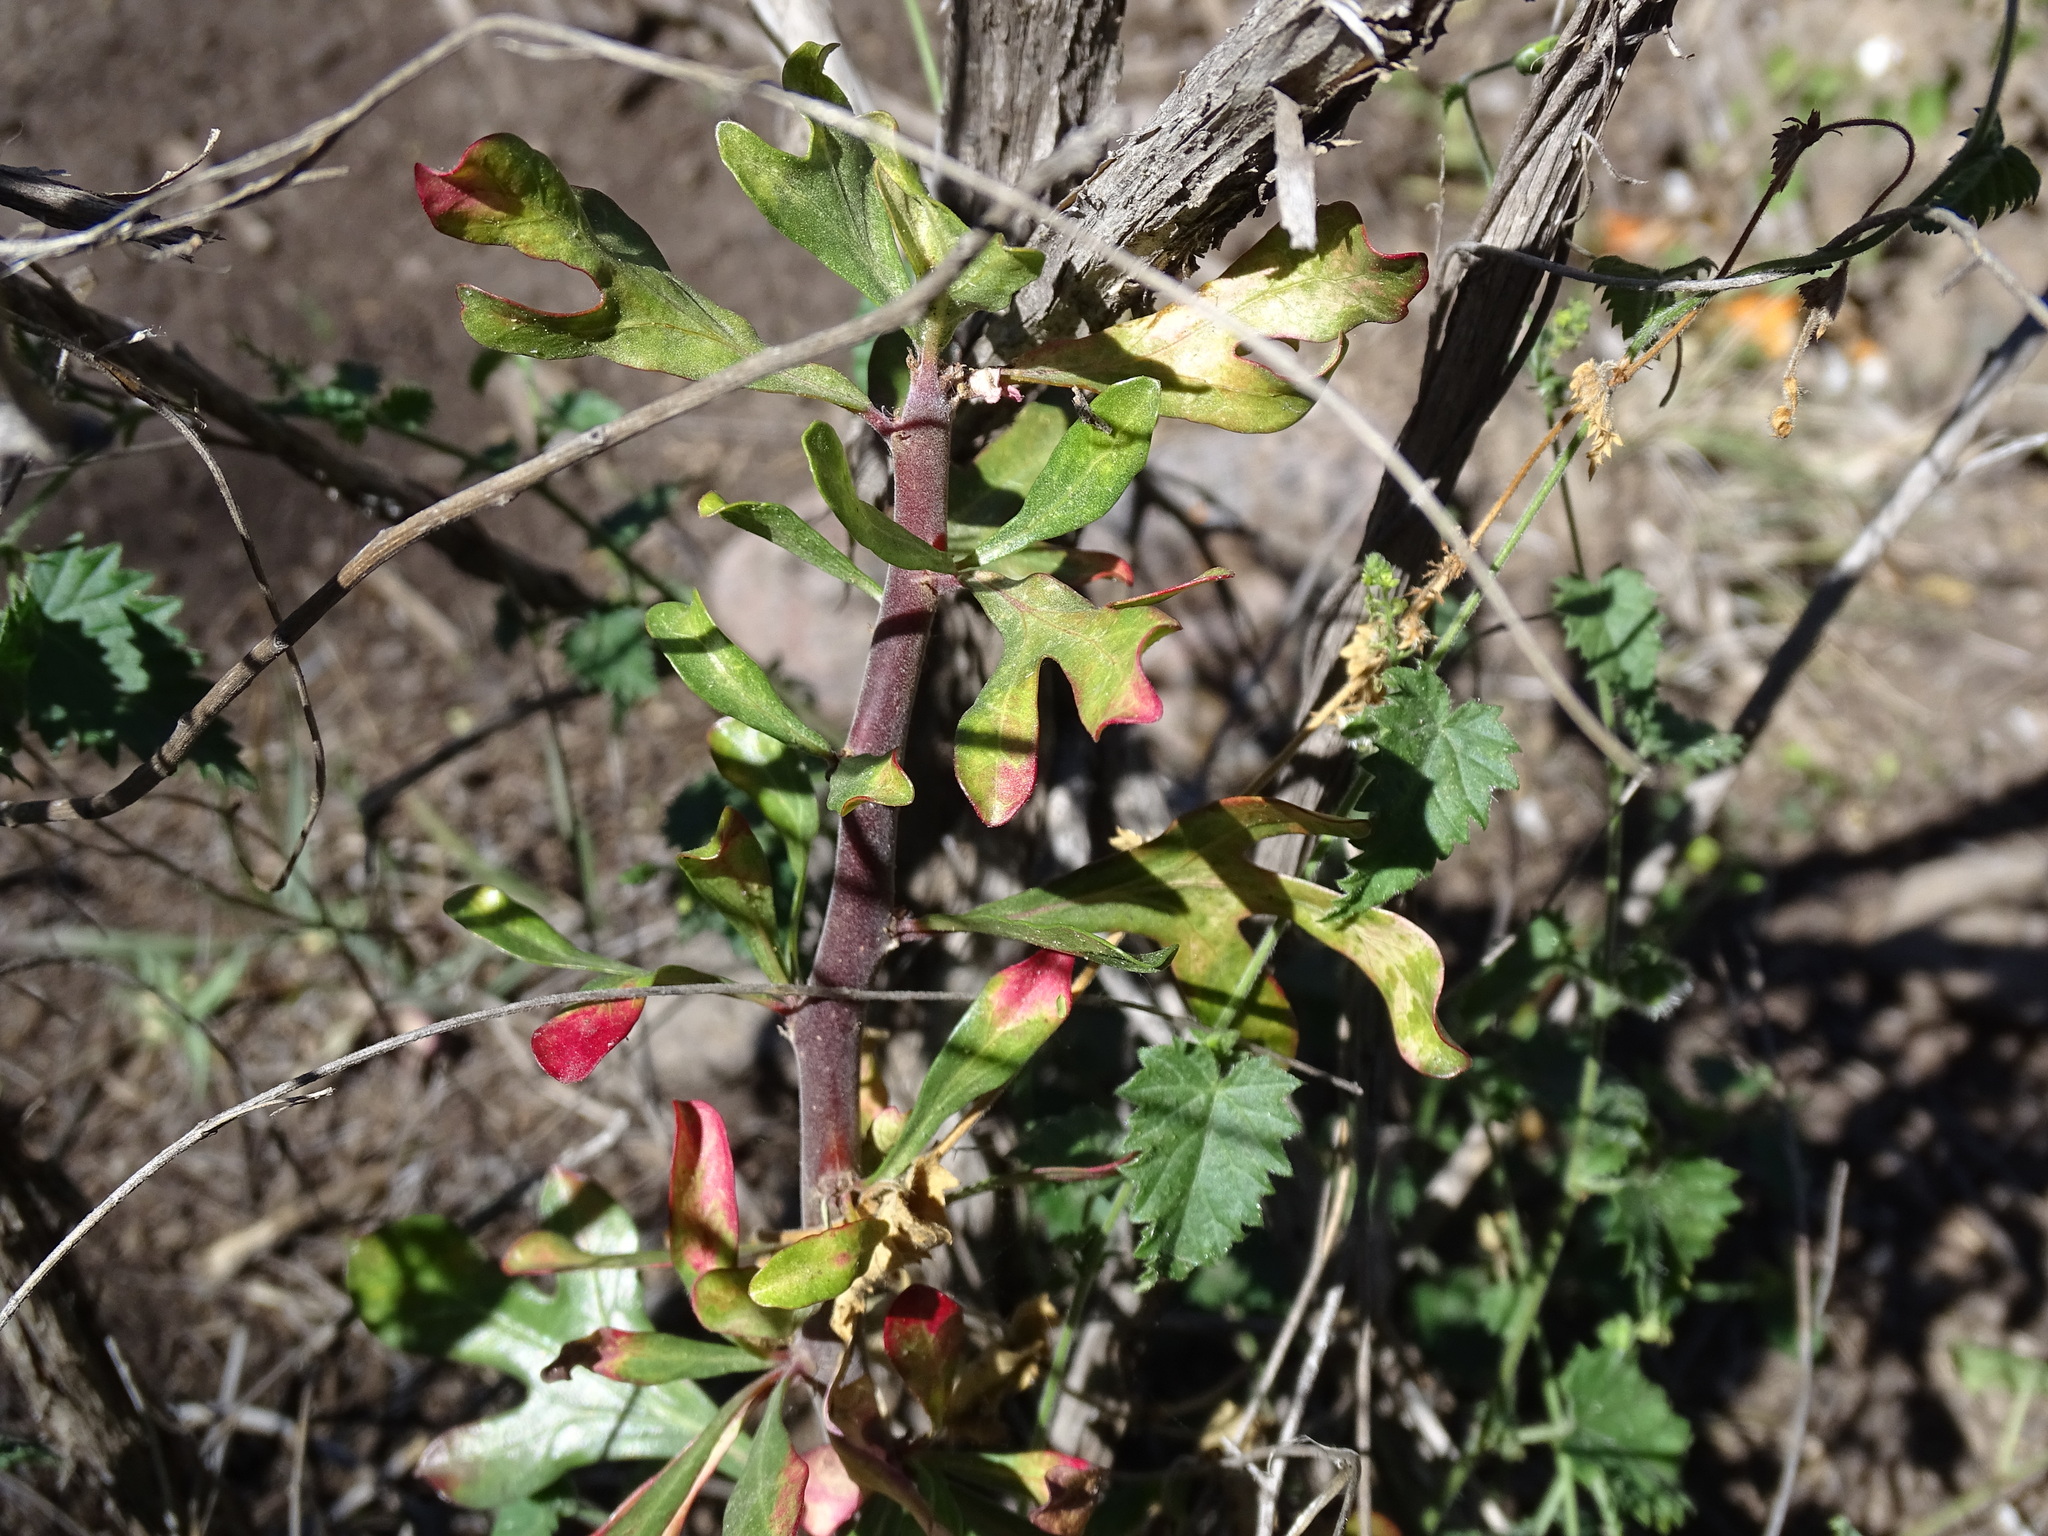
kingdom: Plantae
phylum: Tracheophyta
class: Magnoliopsida
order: Malpighiales
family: Euphorbiaceae
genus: Jatropha
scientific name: Jatropha dioica
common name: Leatherstem
